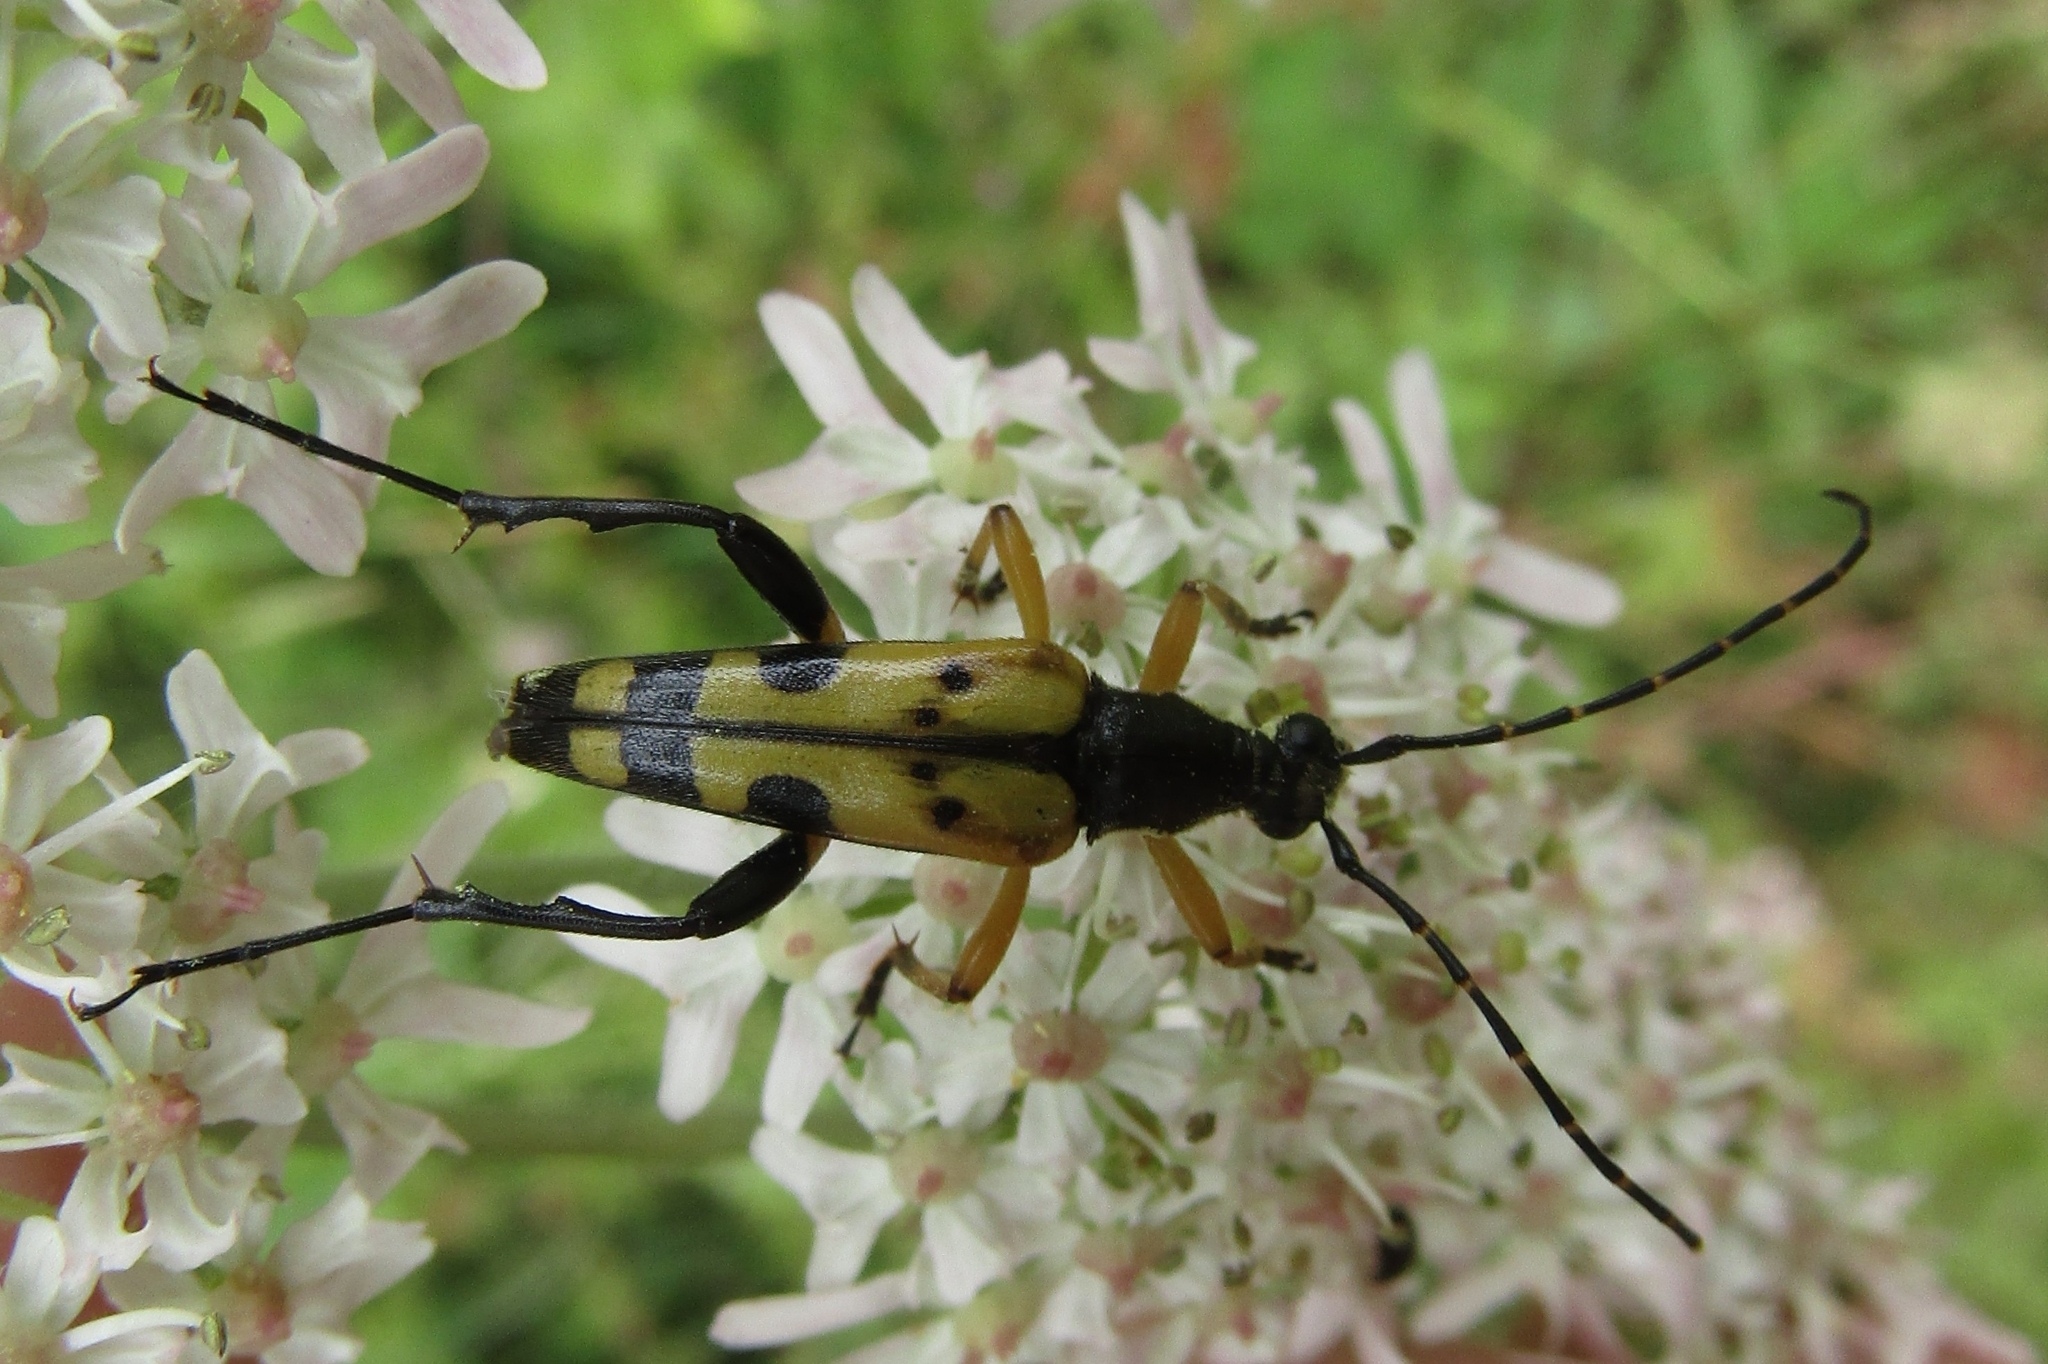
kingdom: Animalia
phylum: Arthropoda
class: Insecta
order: Coleoptera
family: Cerambycidae
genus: Rutpela
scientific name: Rutpela maculata
